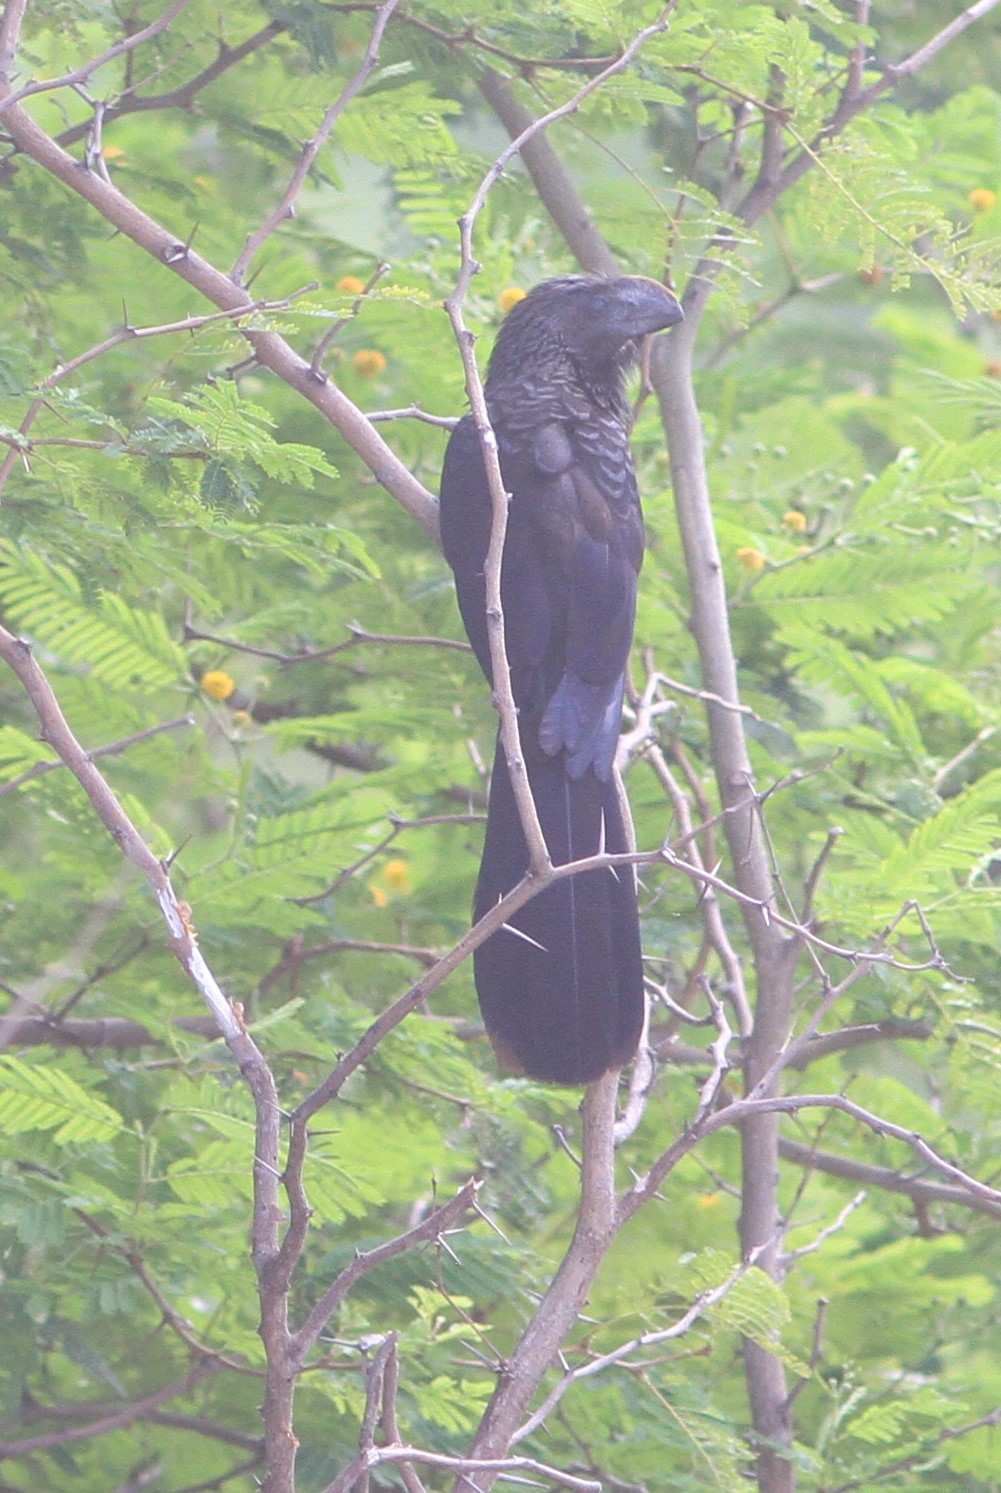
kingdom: Animalia
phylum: Chordata
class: Aves
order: Cuculiformes
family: Cuculidae
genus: Crotophaga
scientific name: Crotophaga ani
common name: Smooth-billed ani
